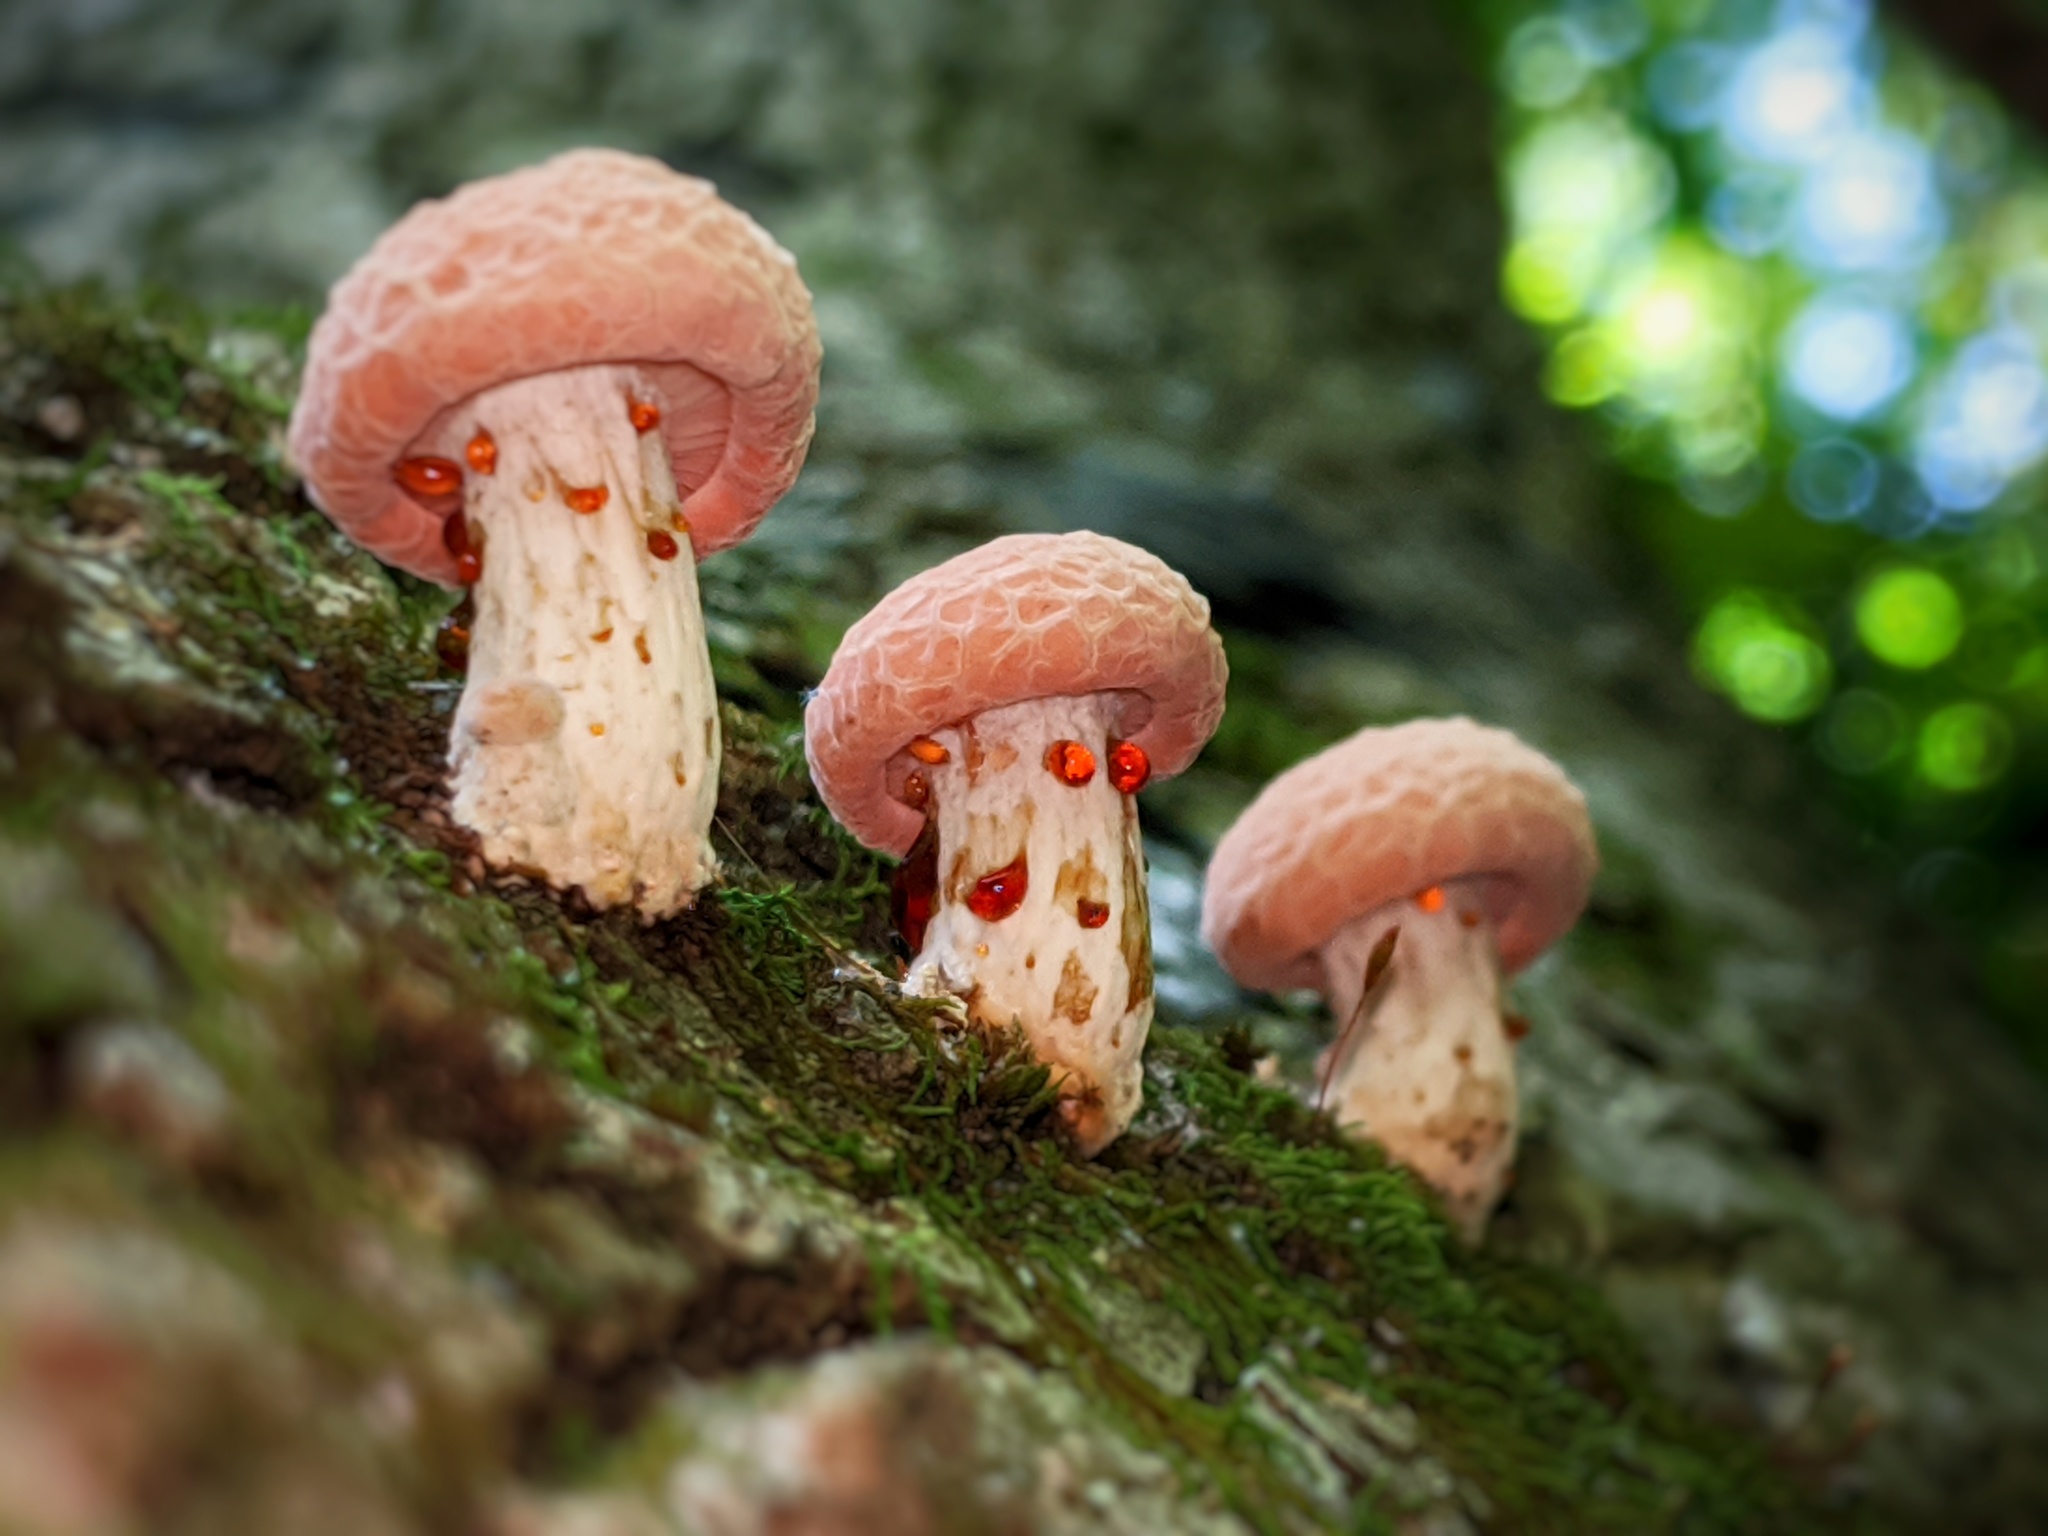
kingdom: Fungi
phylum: Basidiomycota
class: Agaricomycetes
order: Agaricales
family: Physalacriaceae
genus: Rhodotus
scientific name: Rhodotus palmatus
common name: Wrinkled peach
